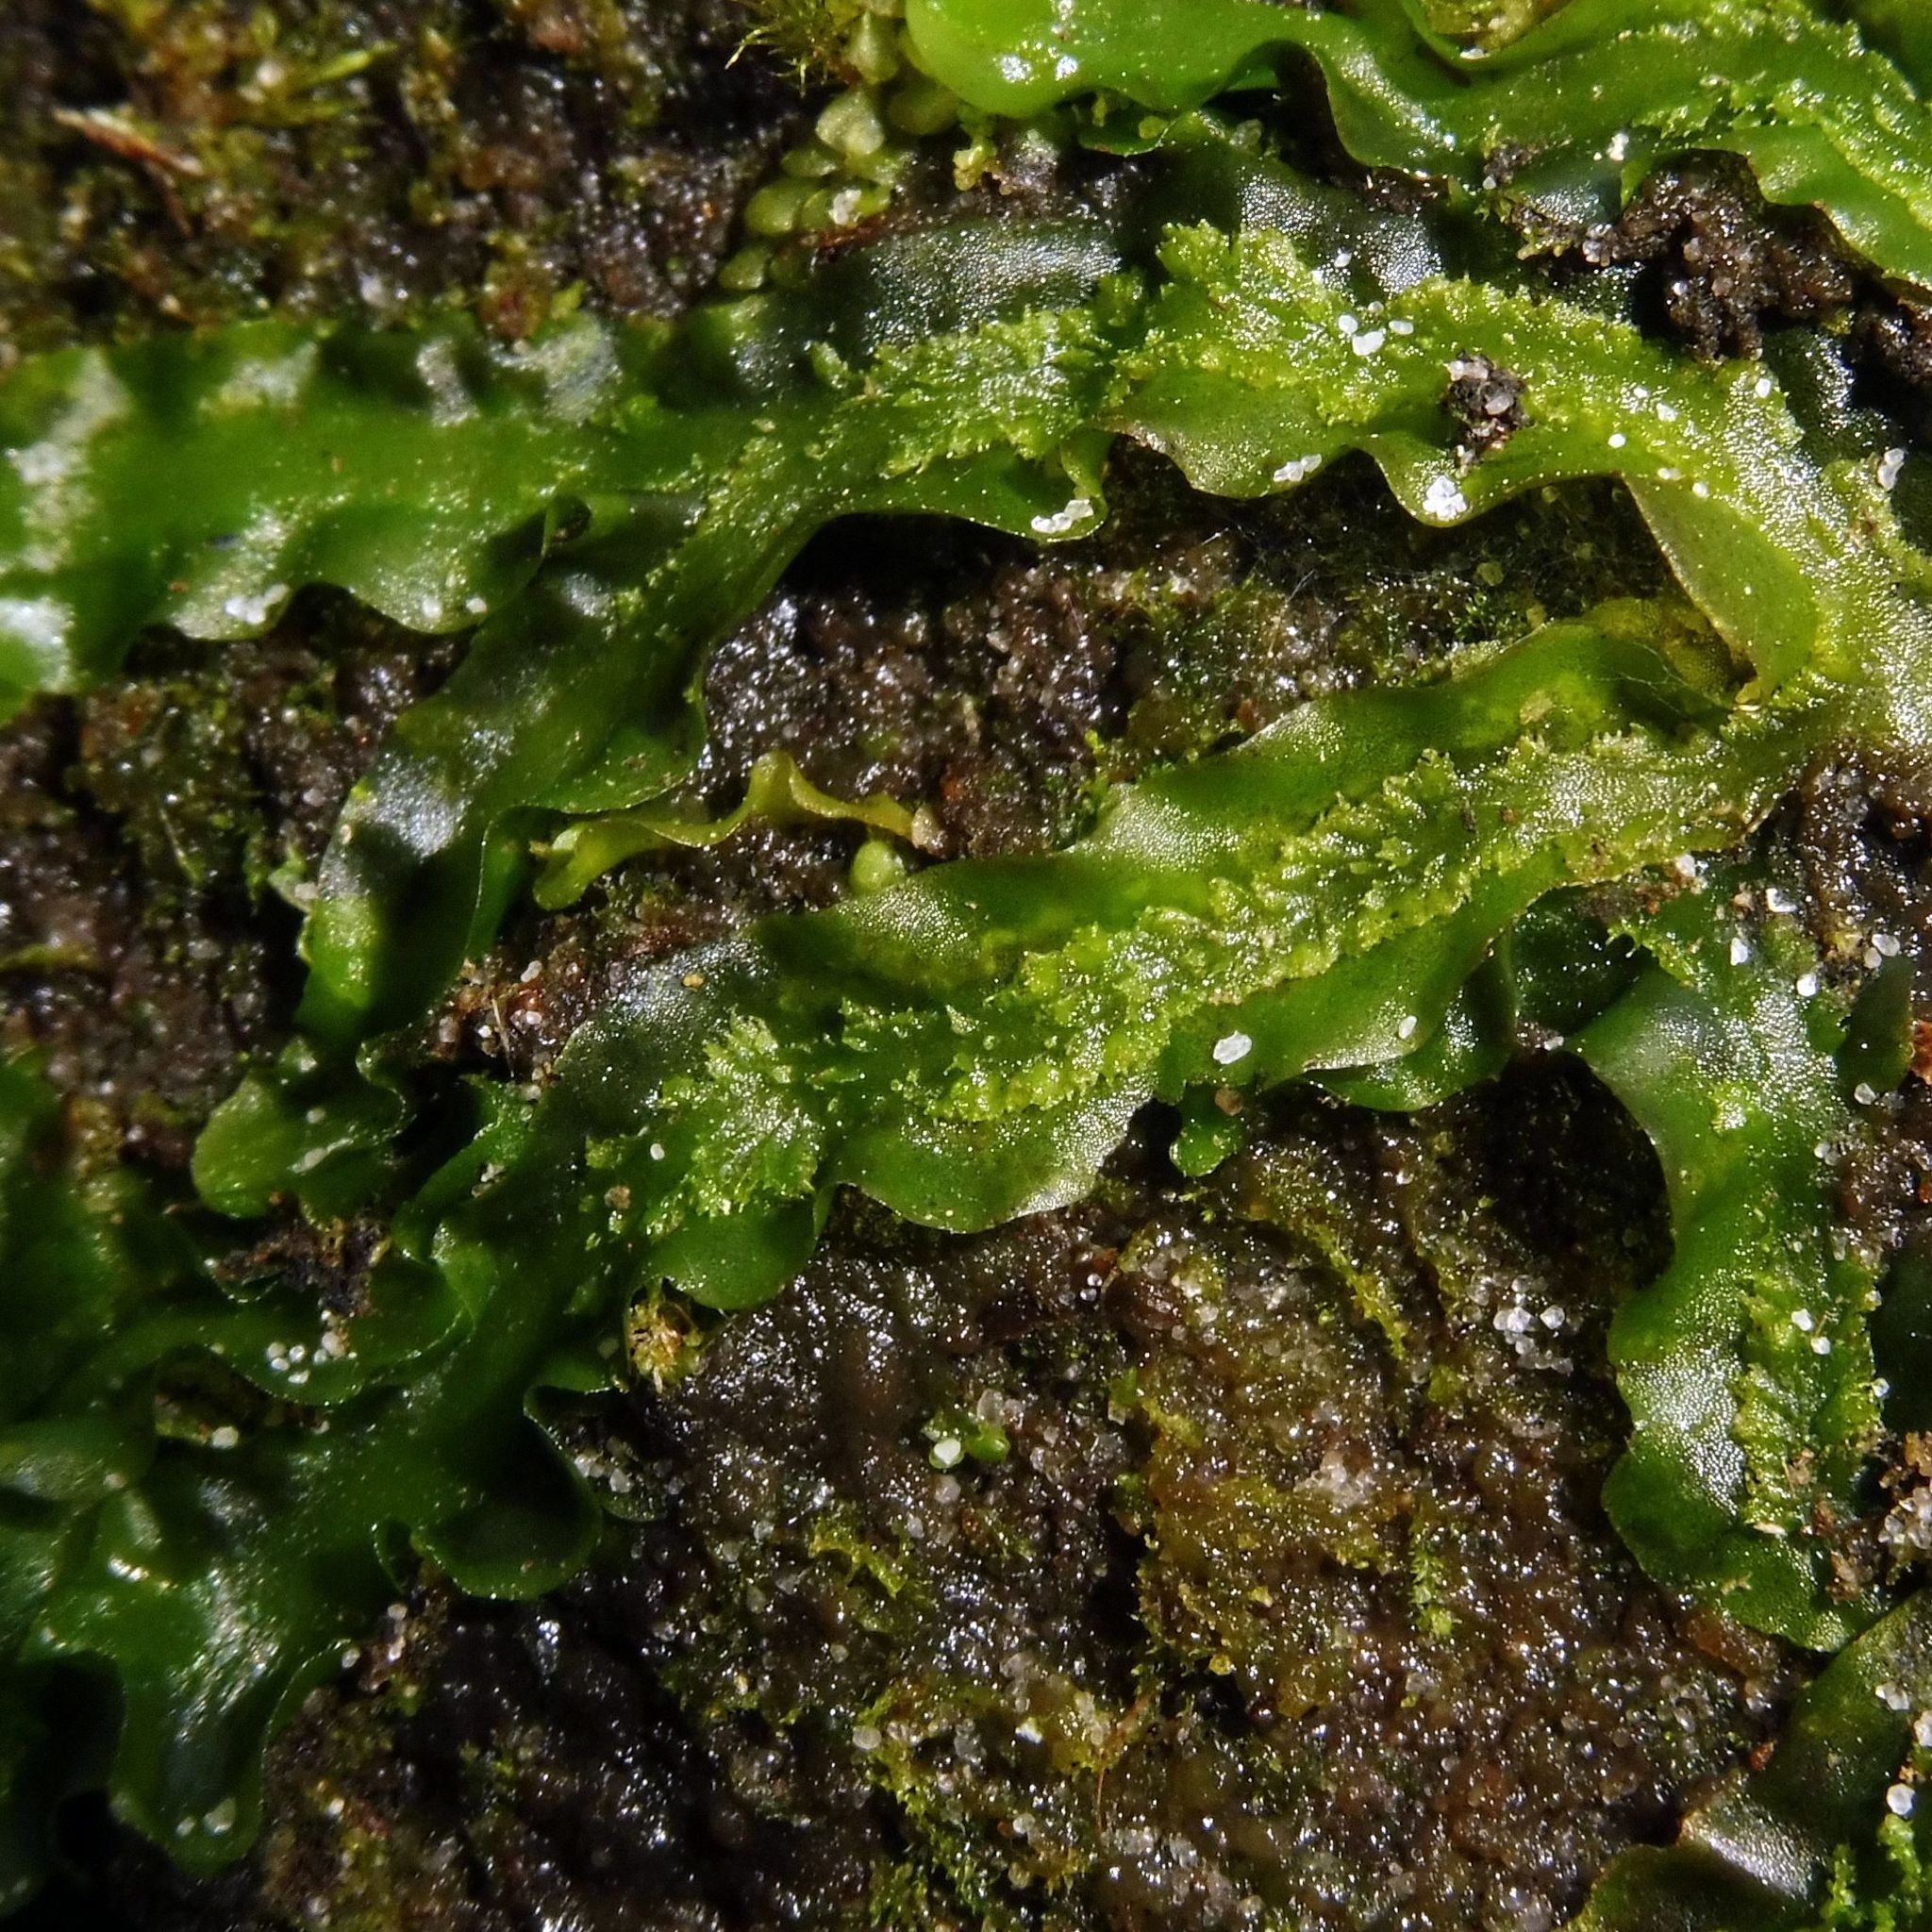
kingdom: Plantae
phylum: Marchantiophyta
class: Jungermanniopsida
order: Pallaviciniales
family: Pallaviciniaceae
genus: Pallavicinia
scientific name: Pallavicinia lyellii
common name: Veilwort
